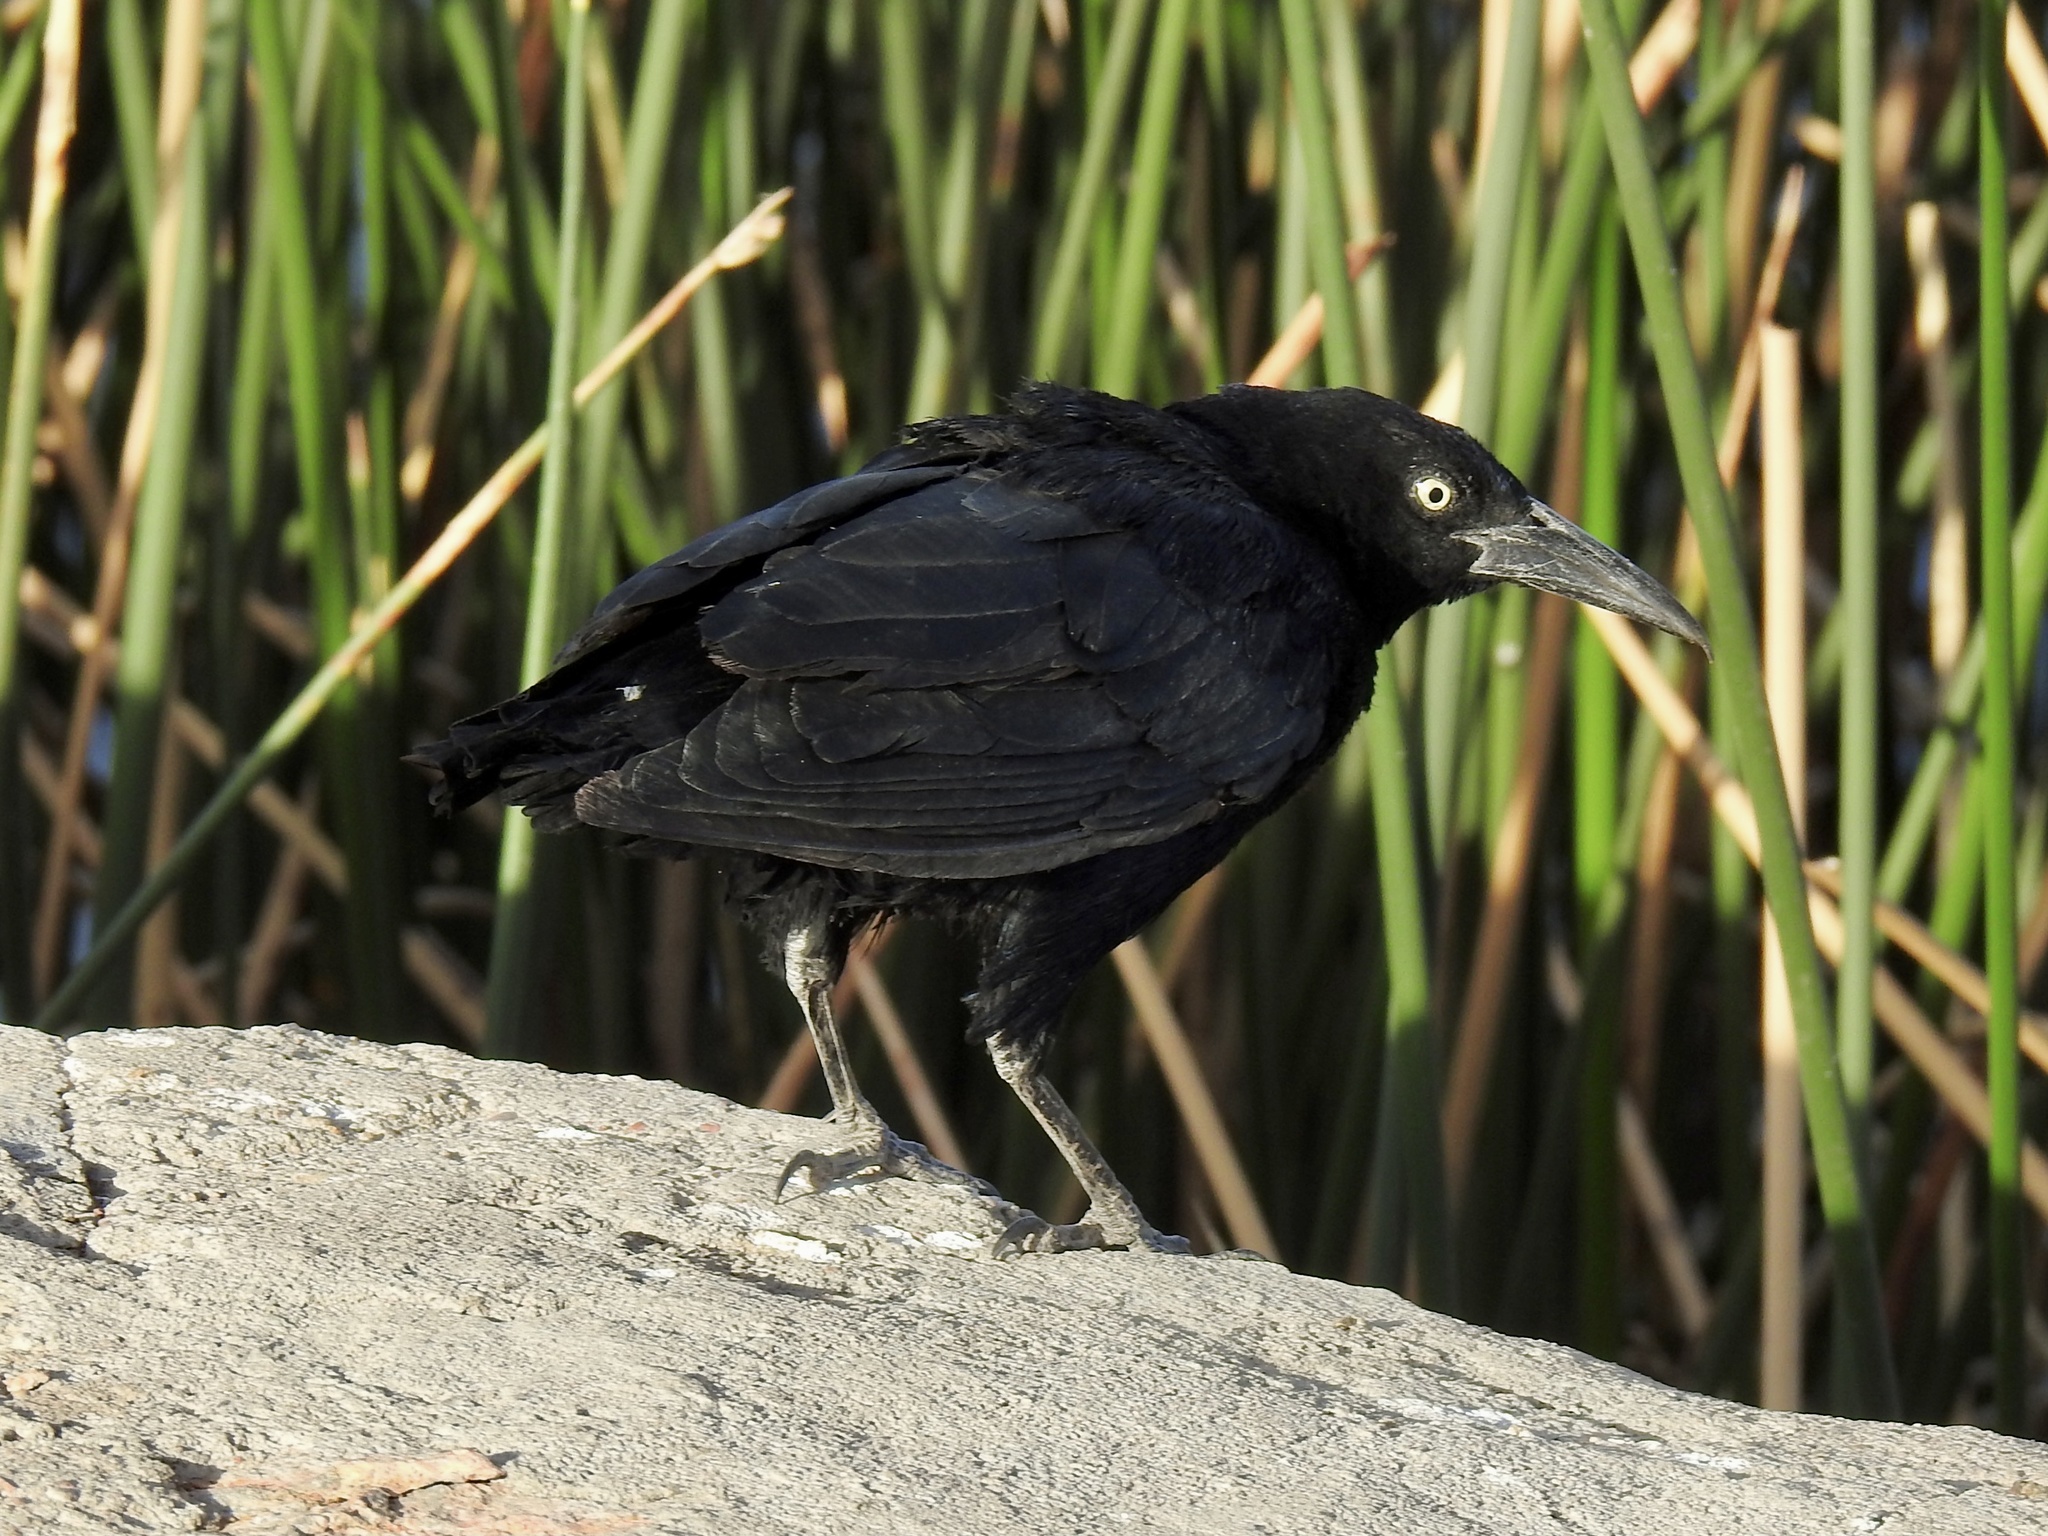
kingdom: Animalia
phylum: Chordata
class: Aves
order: Passeriformes
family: Icteridae
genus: Quiscalus
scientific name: Quiscalus mexicanus
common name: Great-tailed grackle
